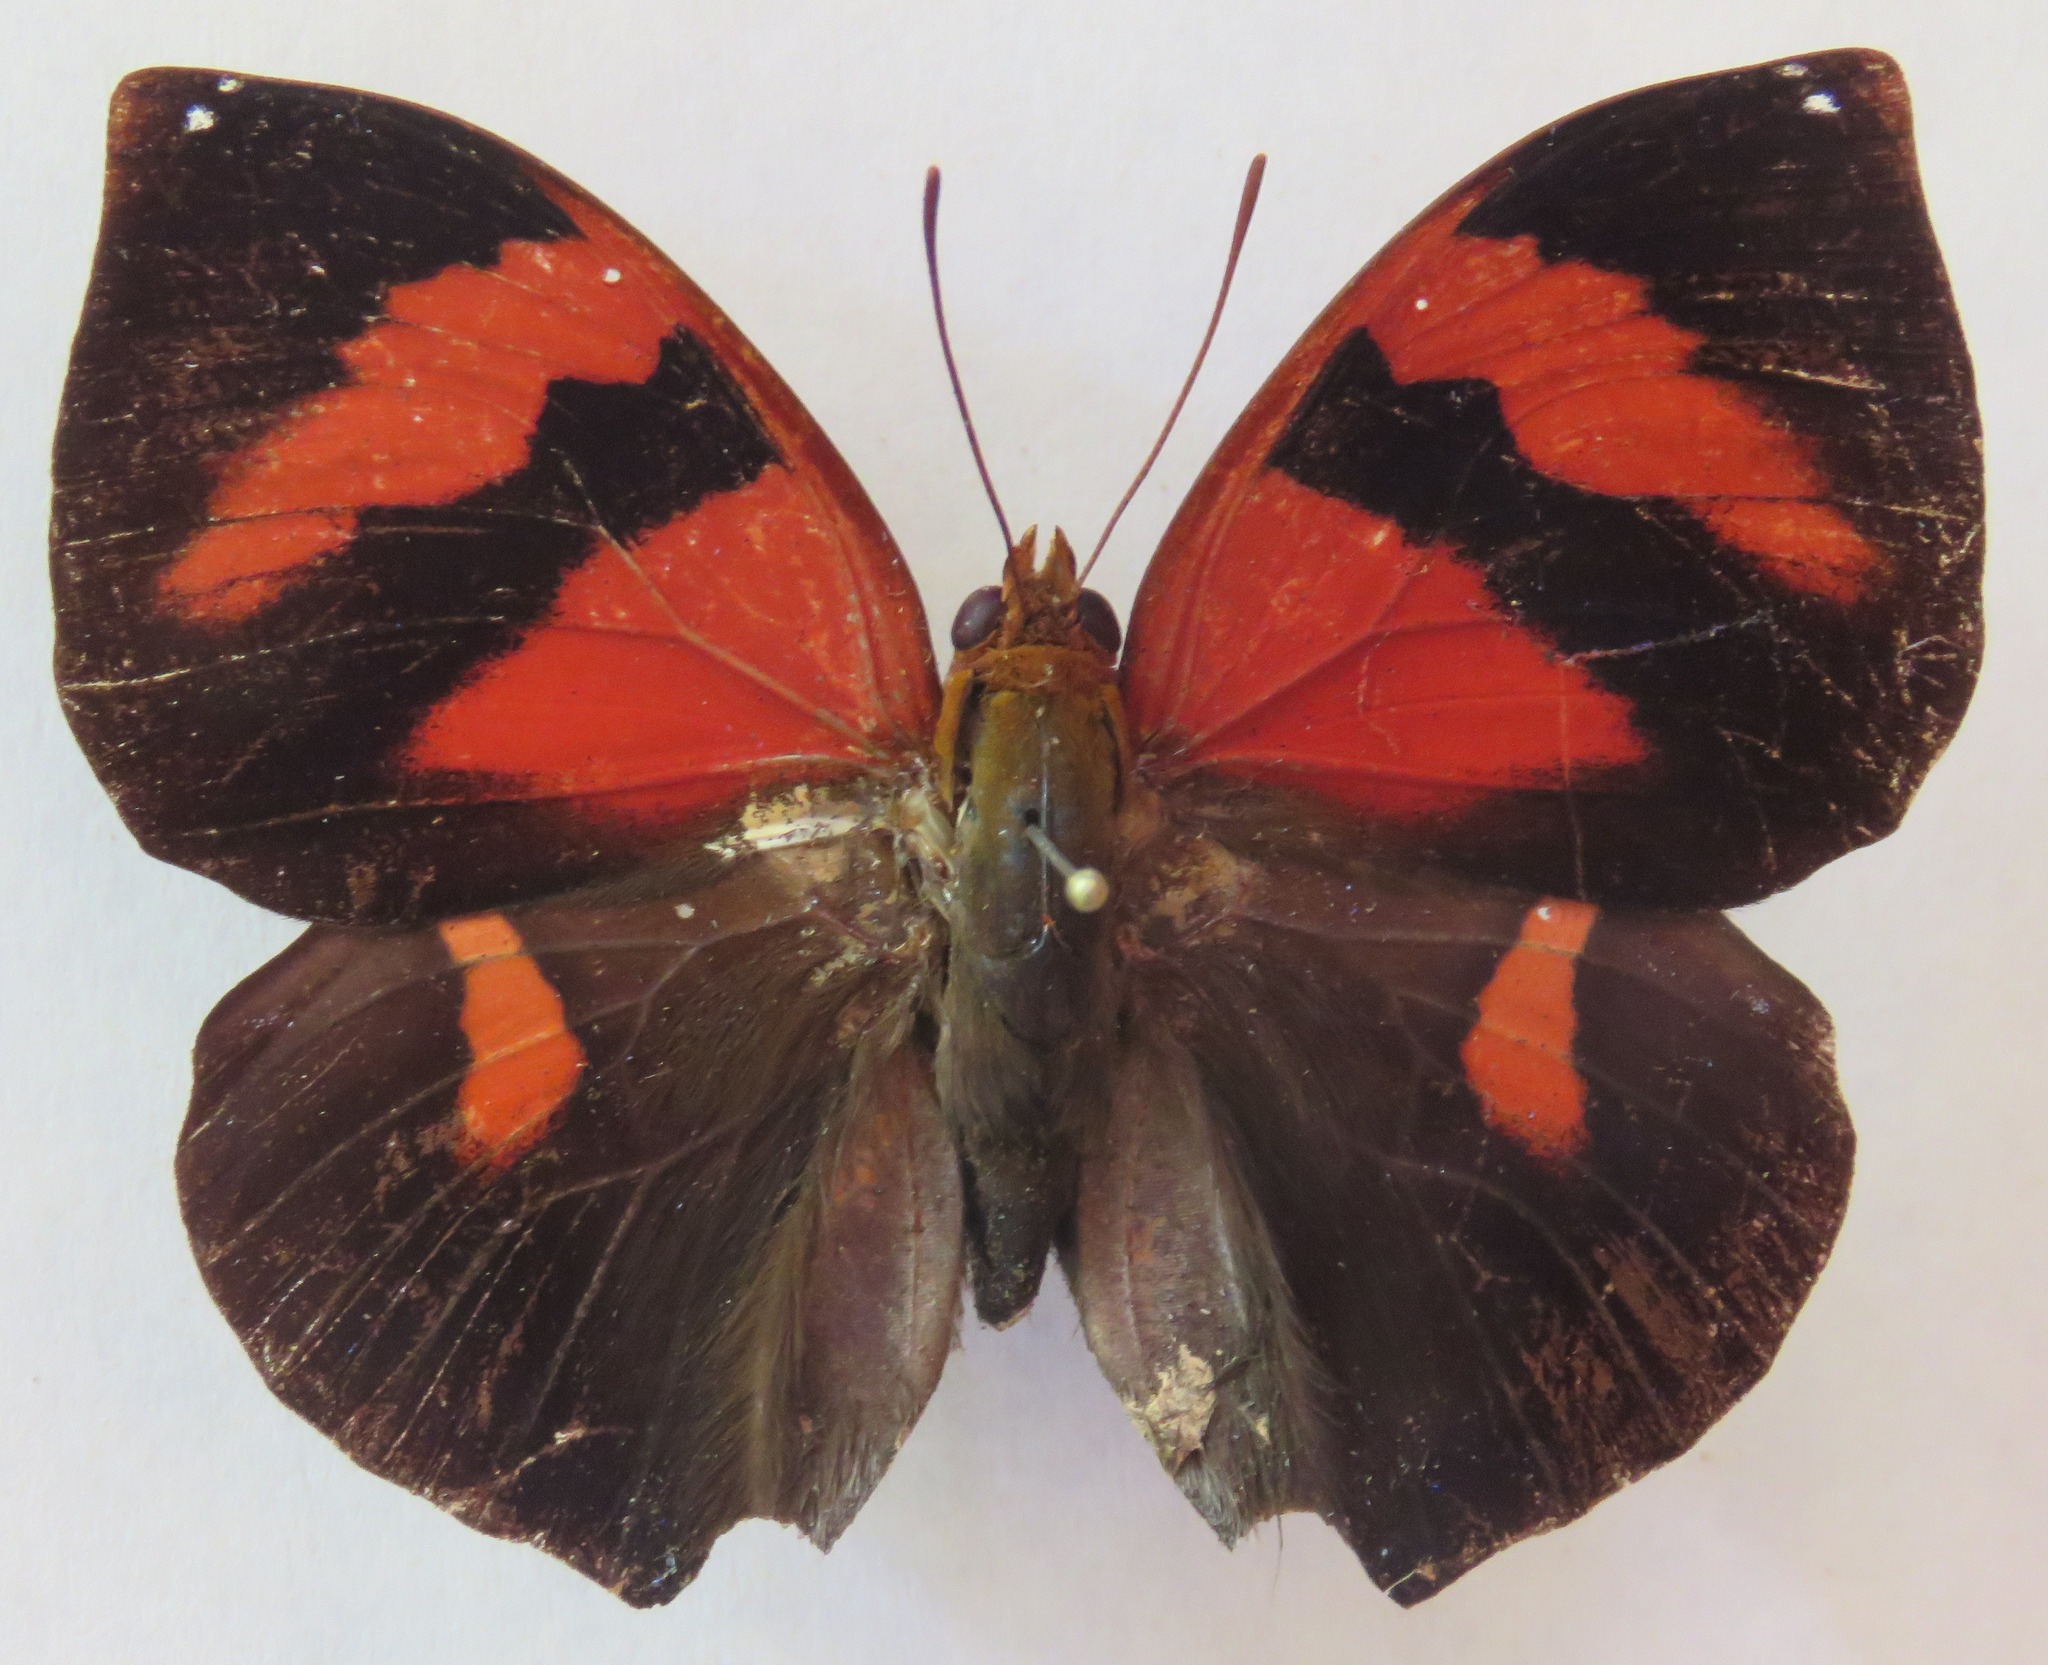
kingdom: Animalia
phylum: Arthropoda
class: Insecta
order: Lepidoptera
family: Nymphalidae
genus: Siderone
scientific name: Siderone galanthis
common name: Red-striped leafwing
